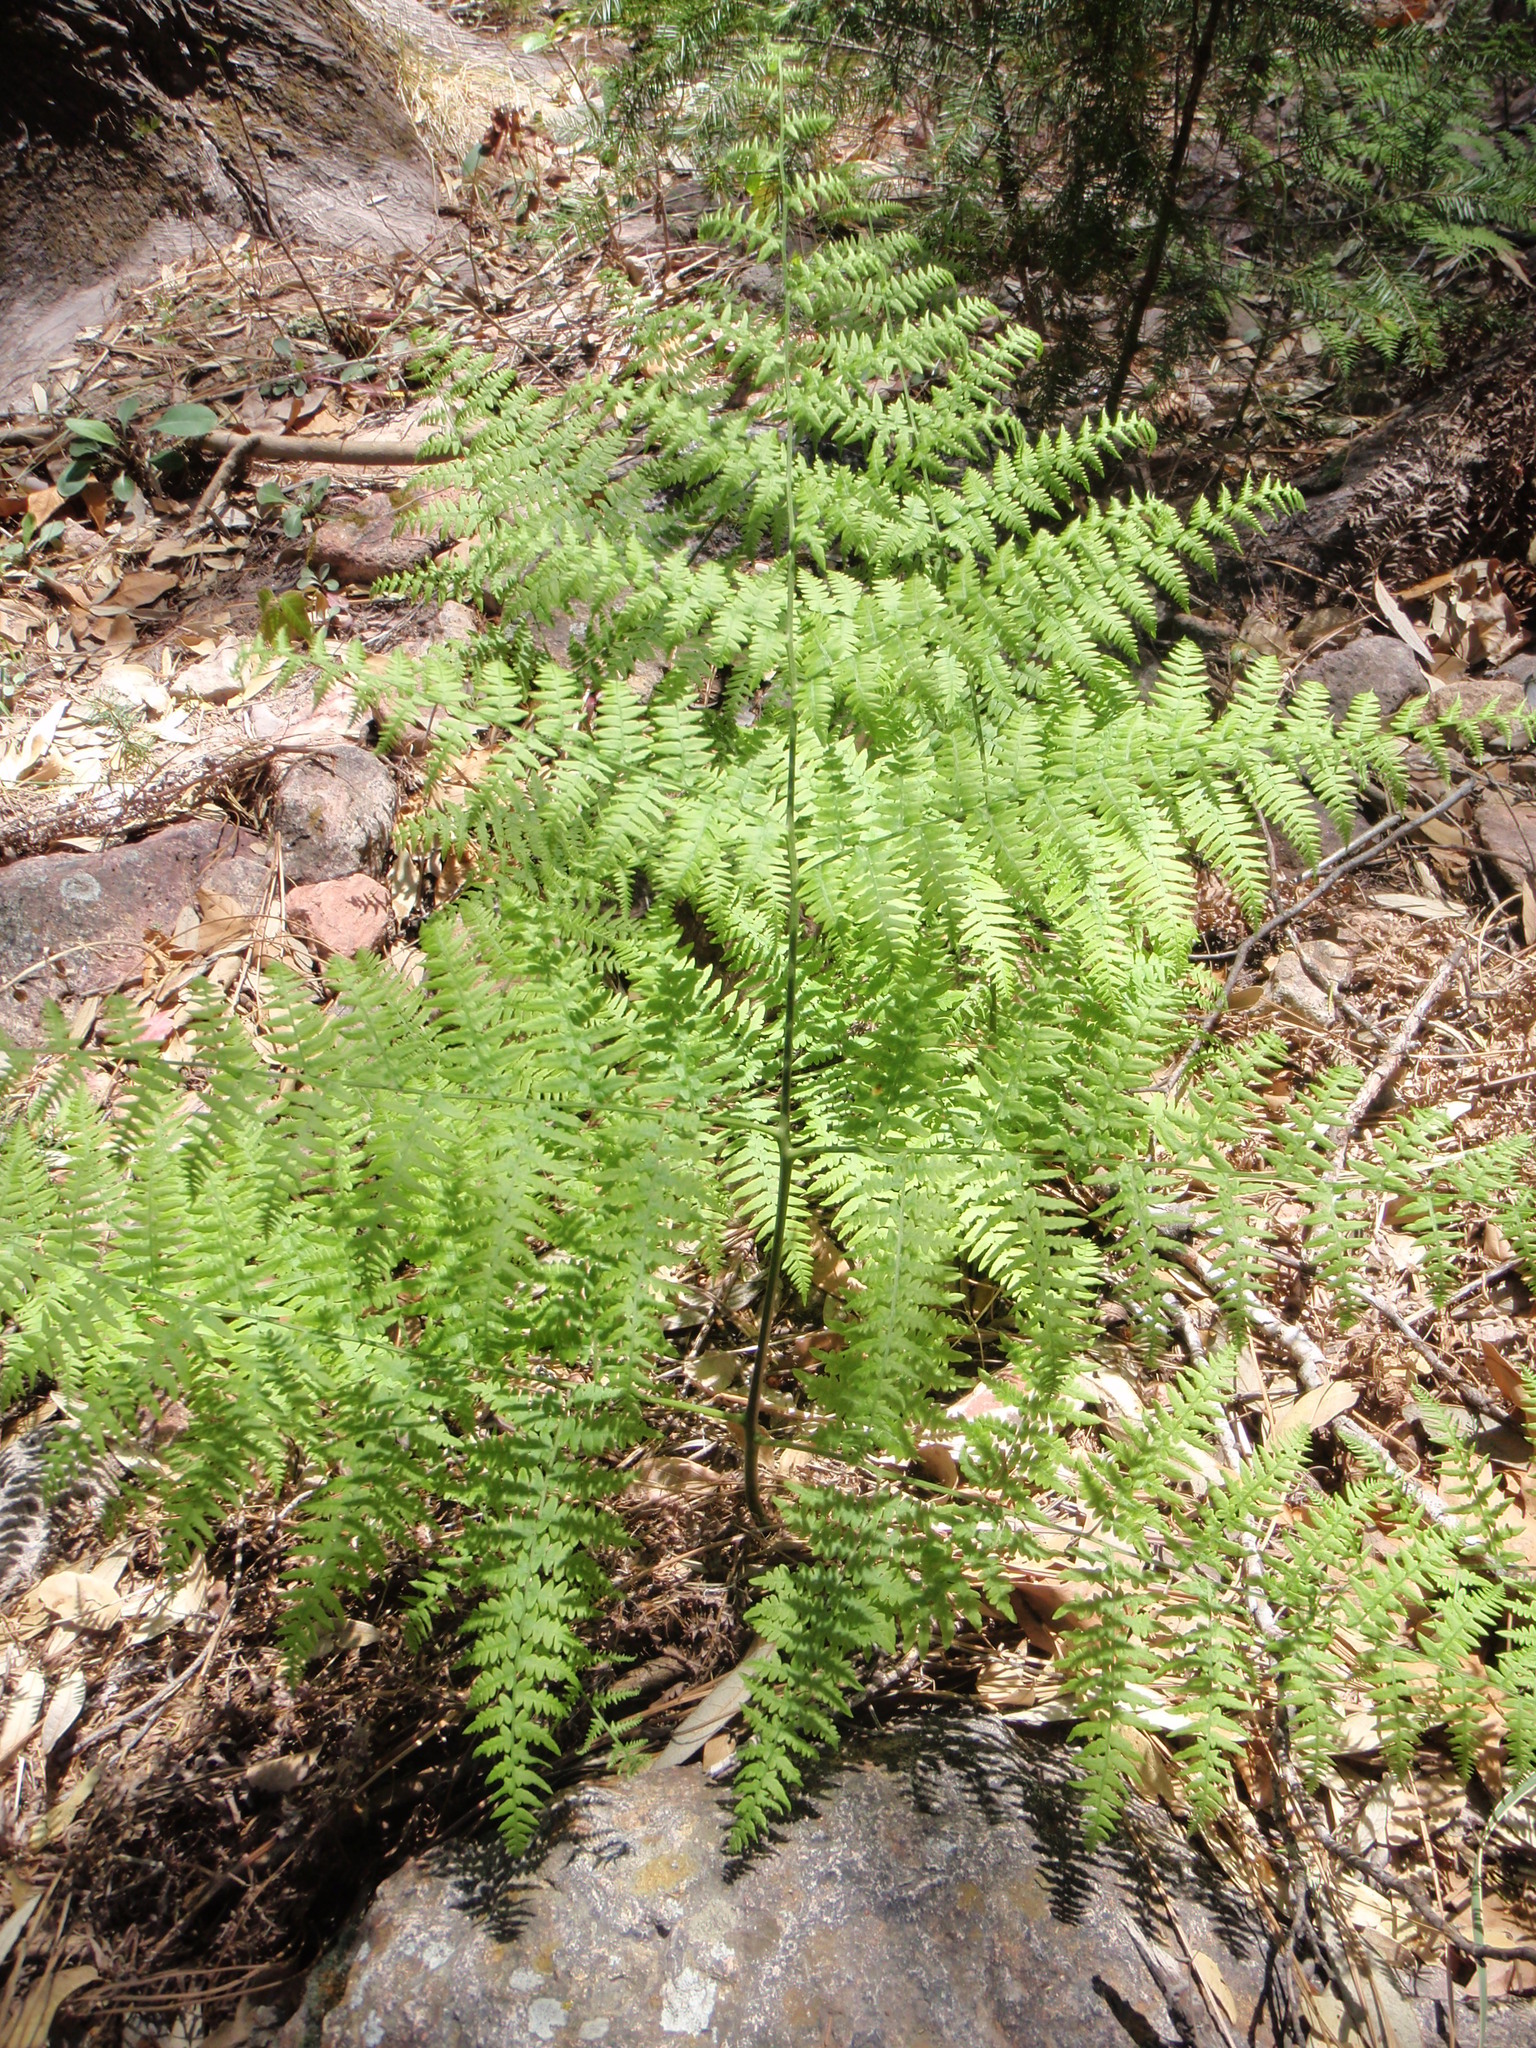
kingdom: Plantae
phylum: Tracheophyta
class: Polypodiopsida
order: Polypodiales
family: Dennstaedtiaceae
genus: Pteridium
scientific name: Pteridium aquilinum
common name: Bracken
